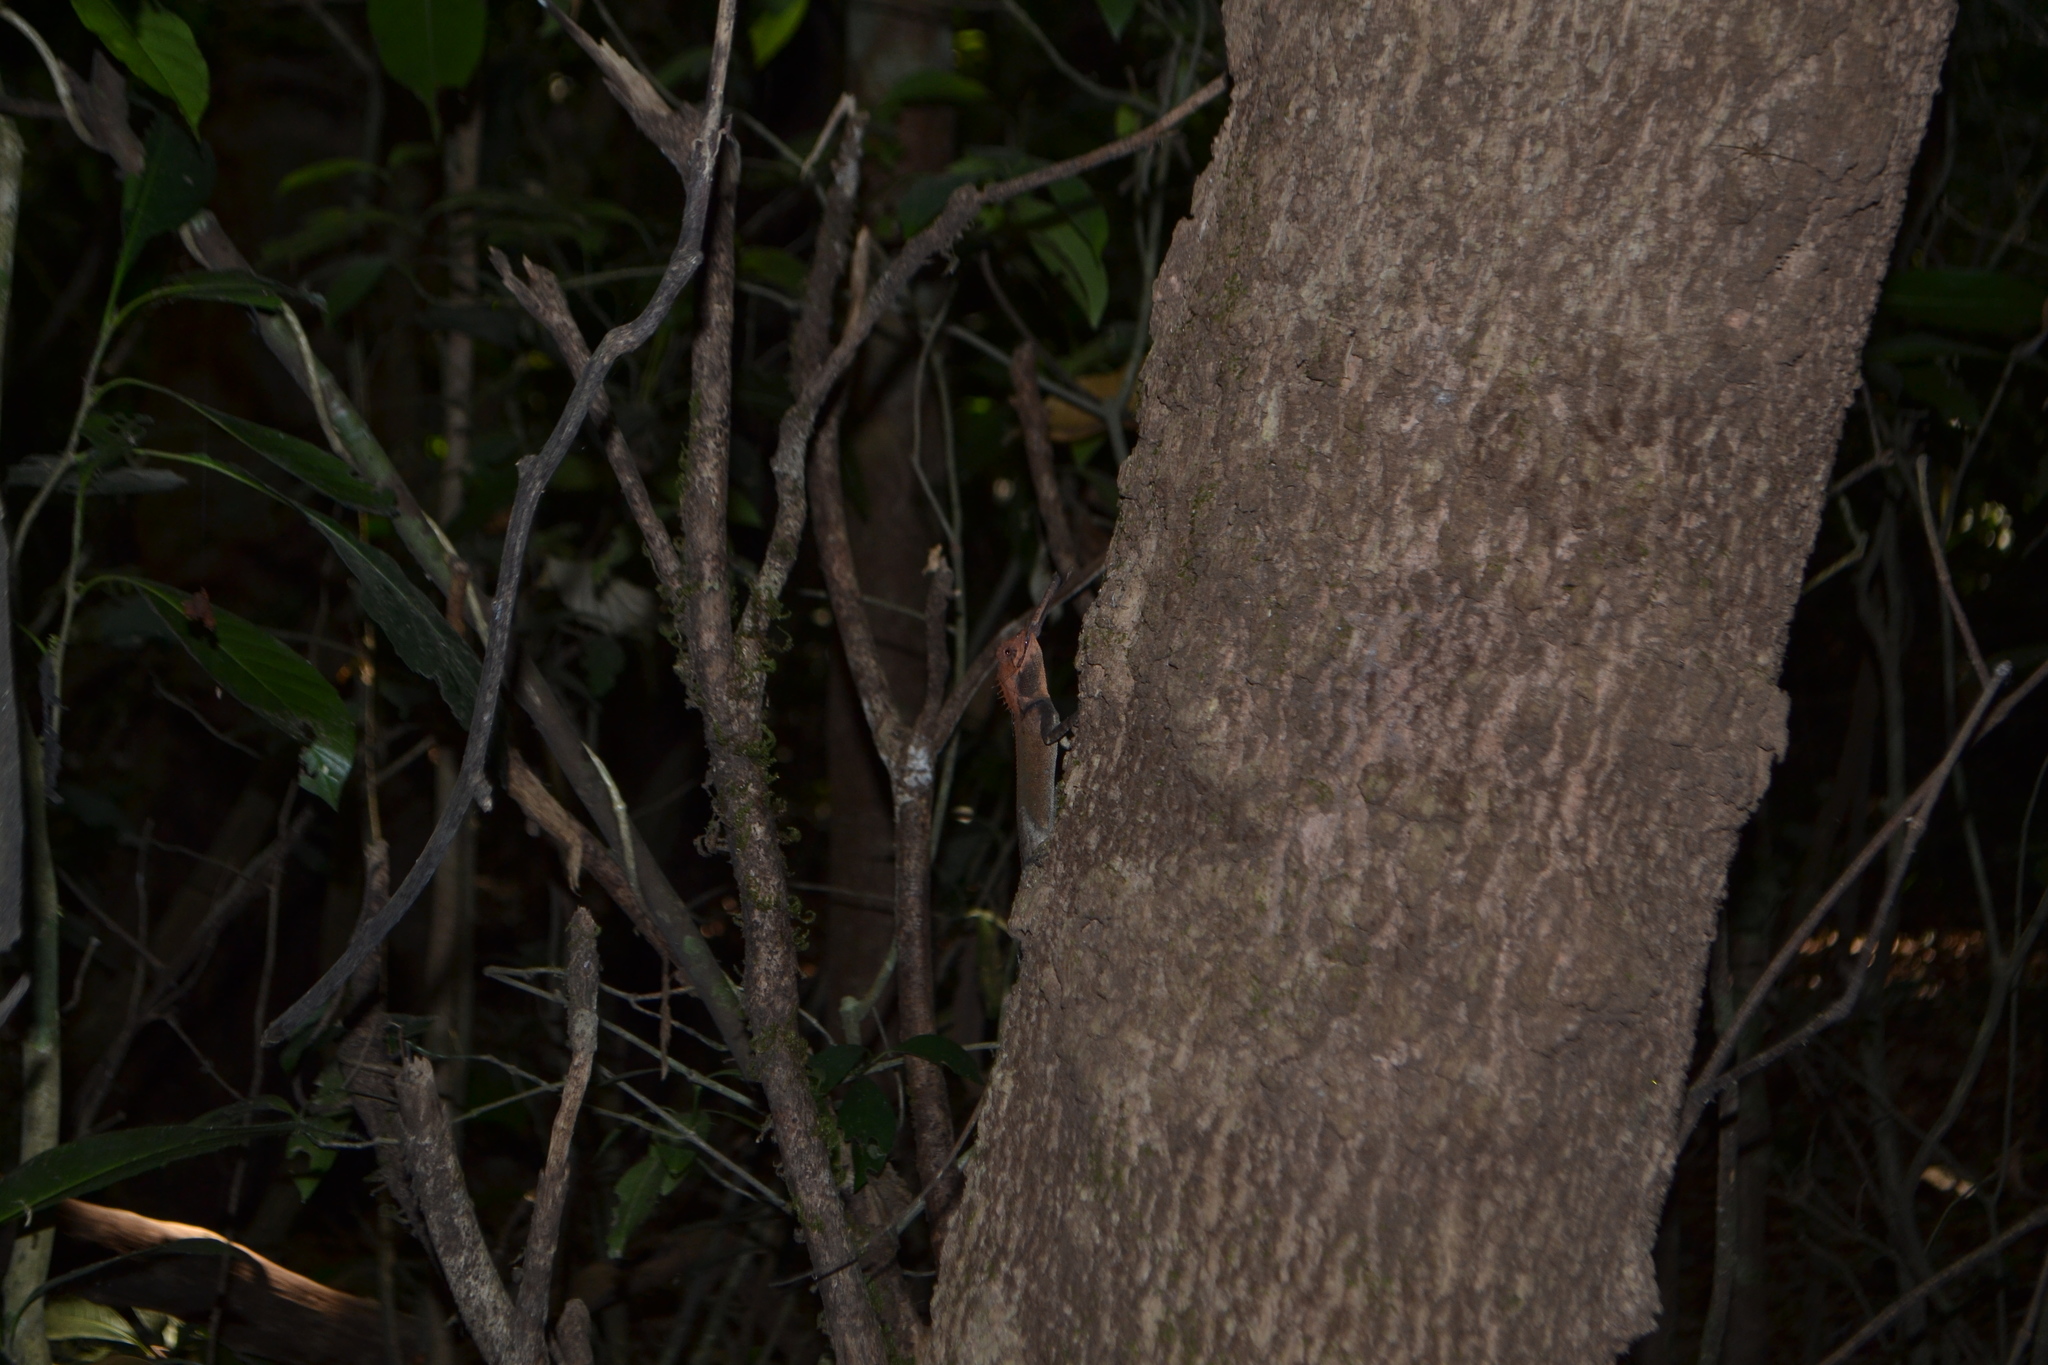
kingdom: Animalia
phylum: Chordata
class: Squamata
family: Agamidae
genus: Monilesaurus
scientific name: Monilesaurus rouxii
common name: Roux's forest lizard
